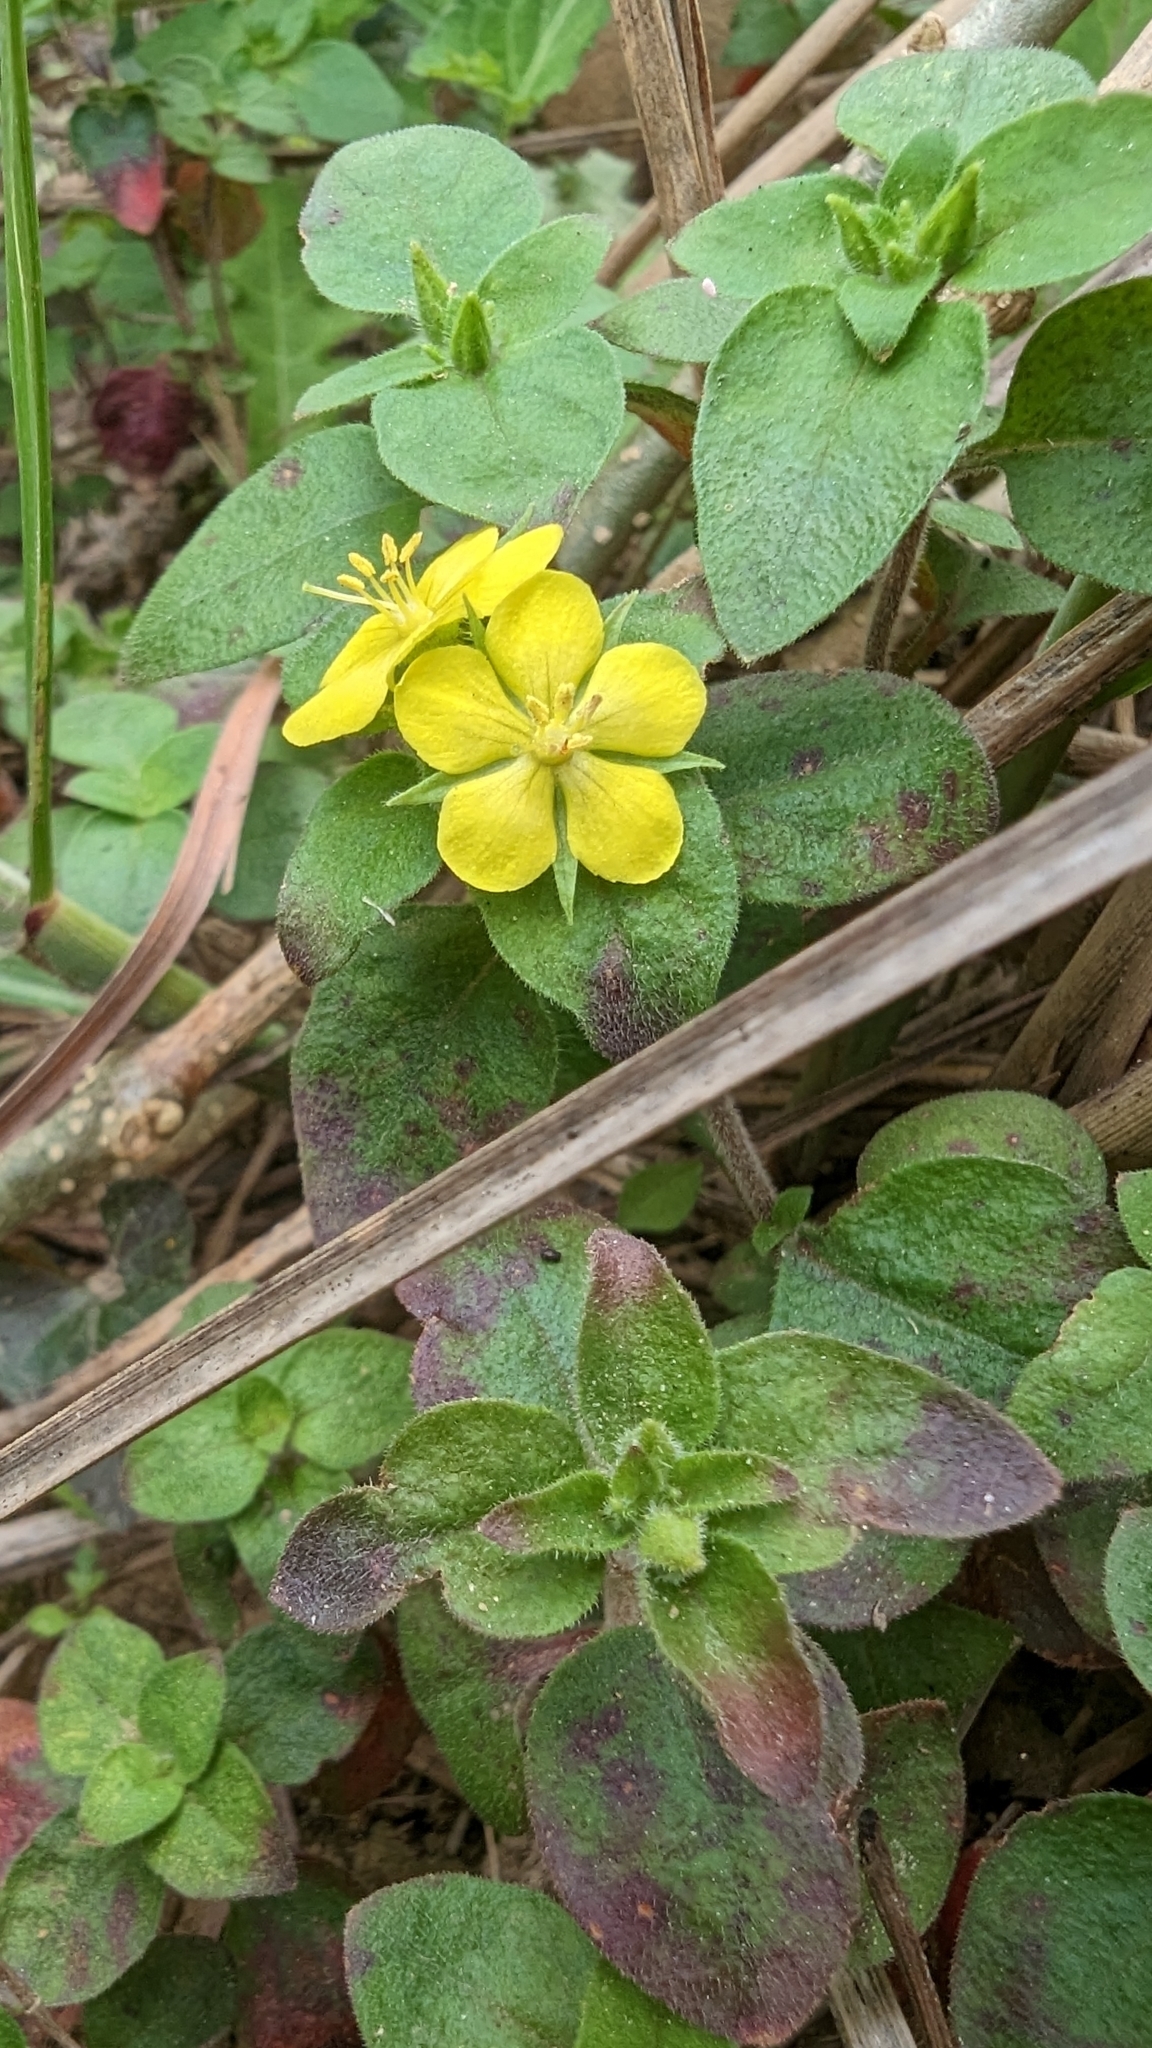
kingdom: Plantae
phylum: Tracheophyta
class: Magnoliopsida
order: Ericales
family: Primulaceae
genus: Lysimachia
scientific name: Lysimachia remota
